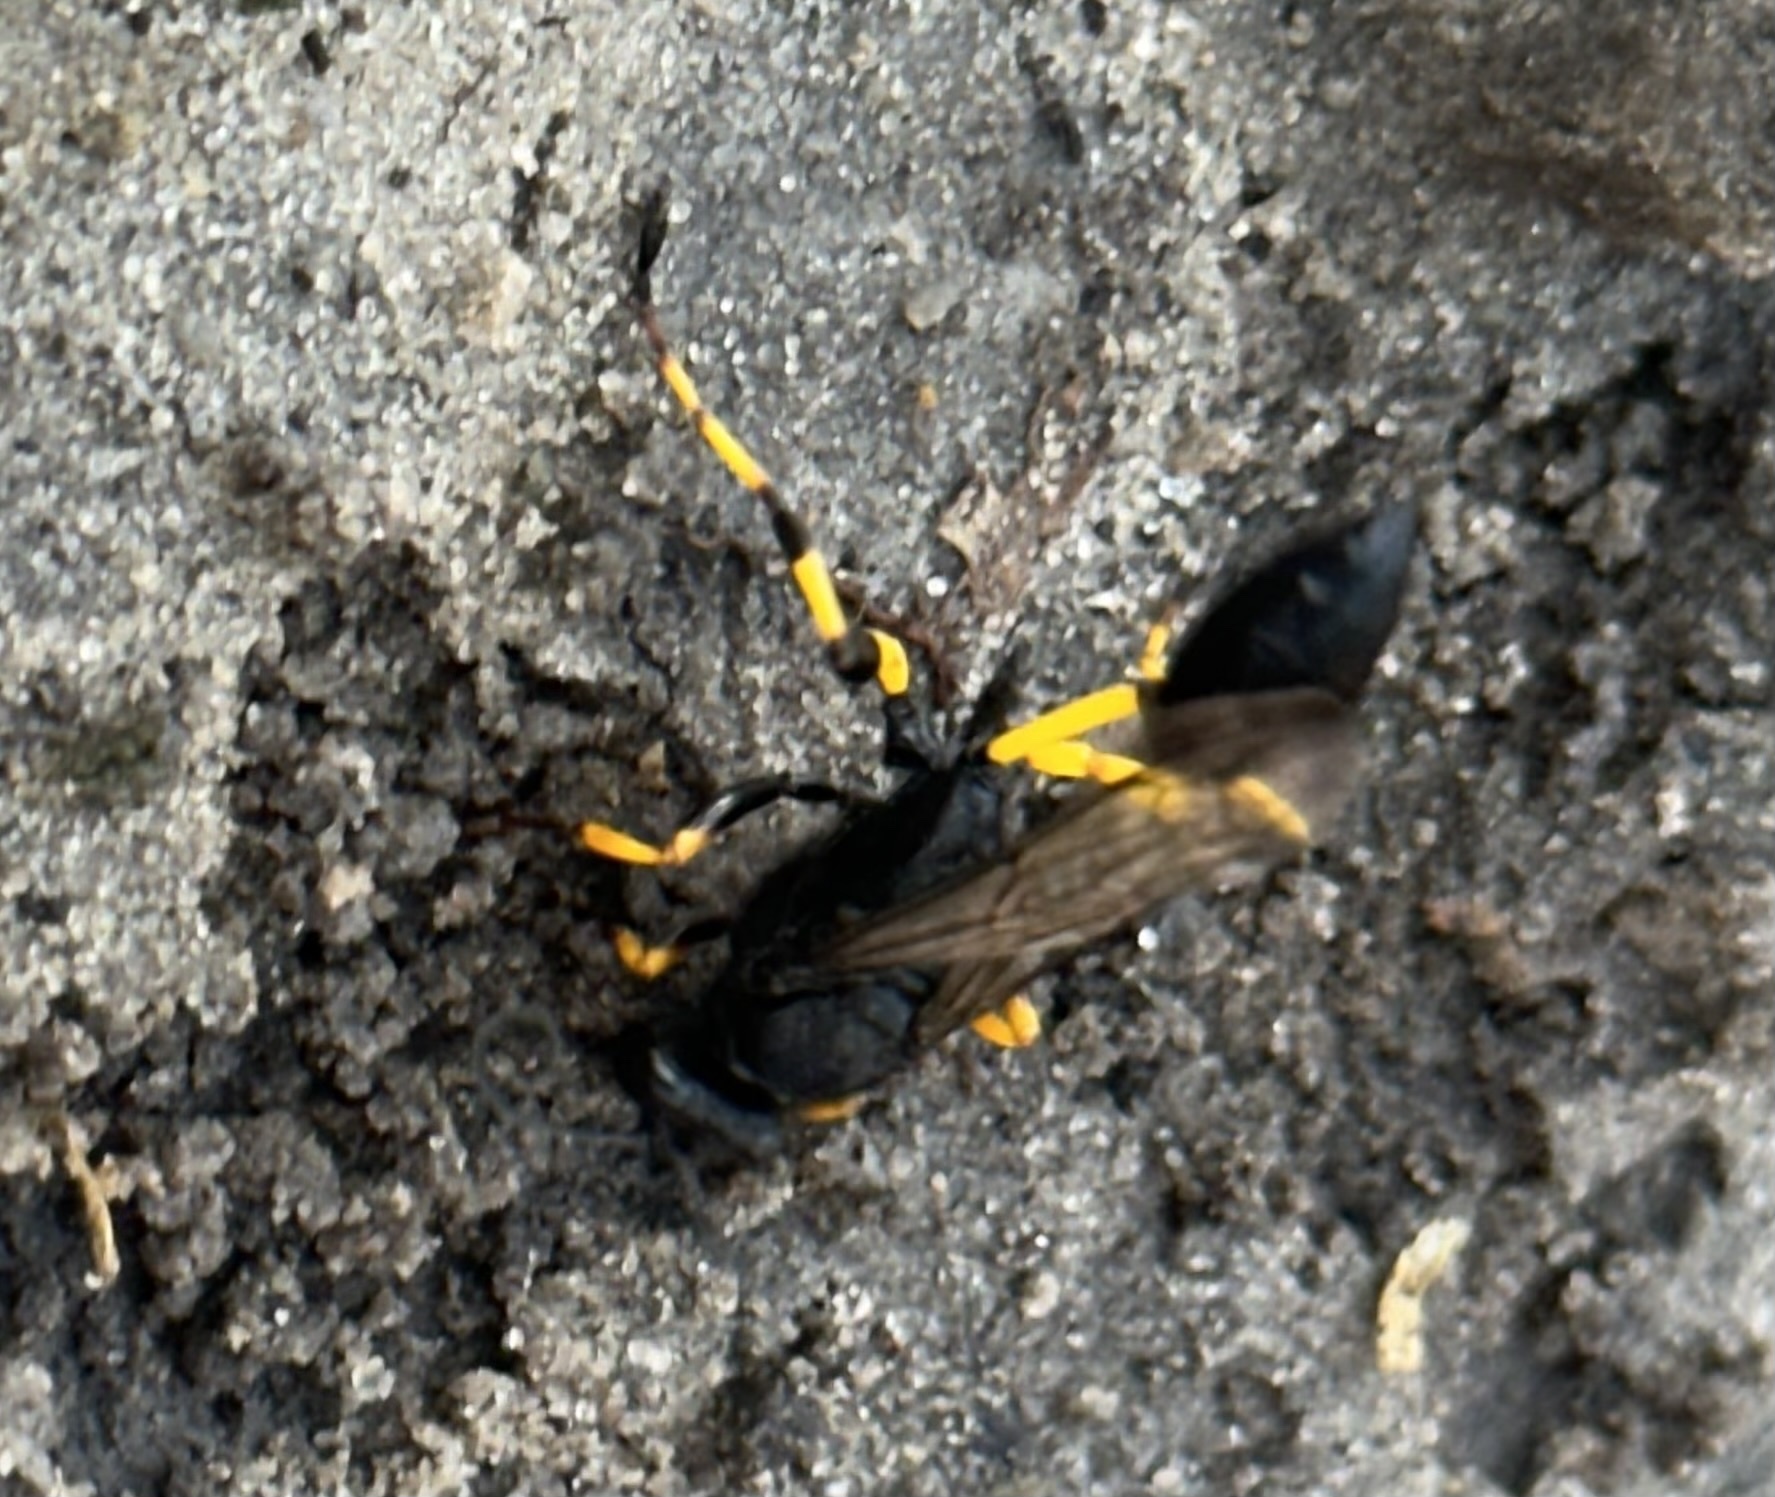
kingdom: Animalia
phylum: Arthropoda
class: Insecta
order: Hymenoptera
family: Sphecidae
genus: Sceliphron
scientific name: Sceliphron spirifex
